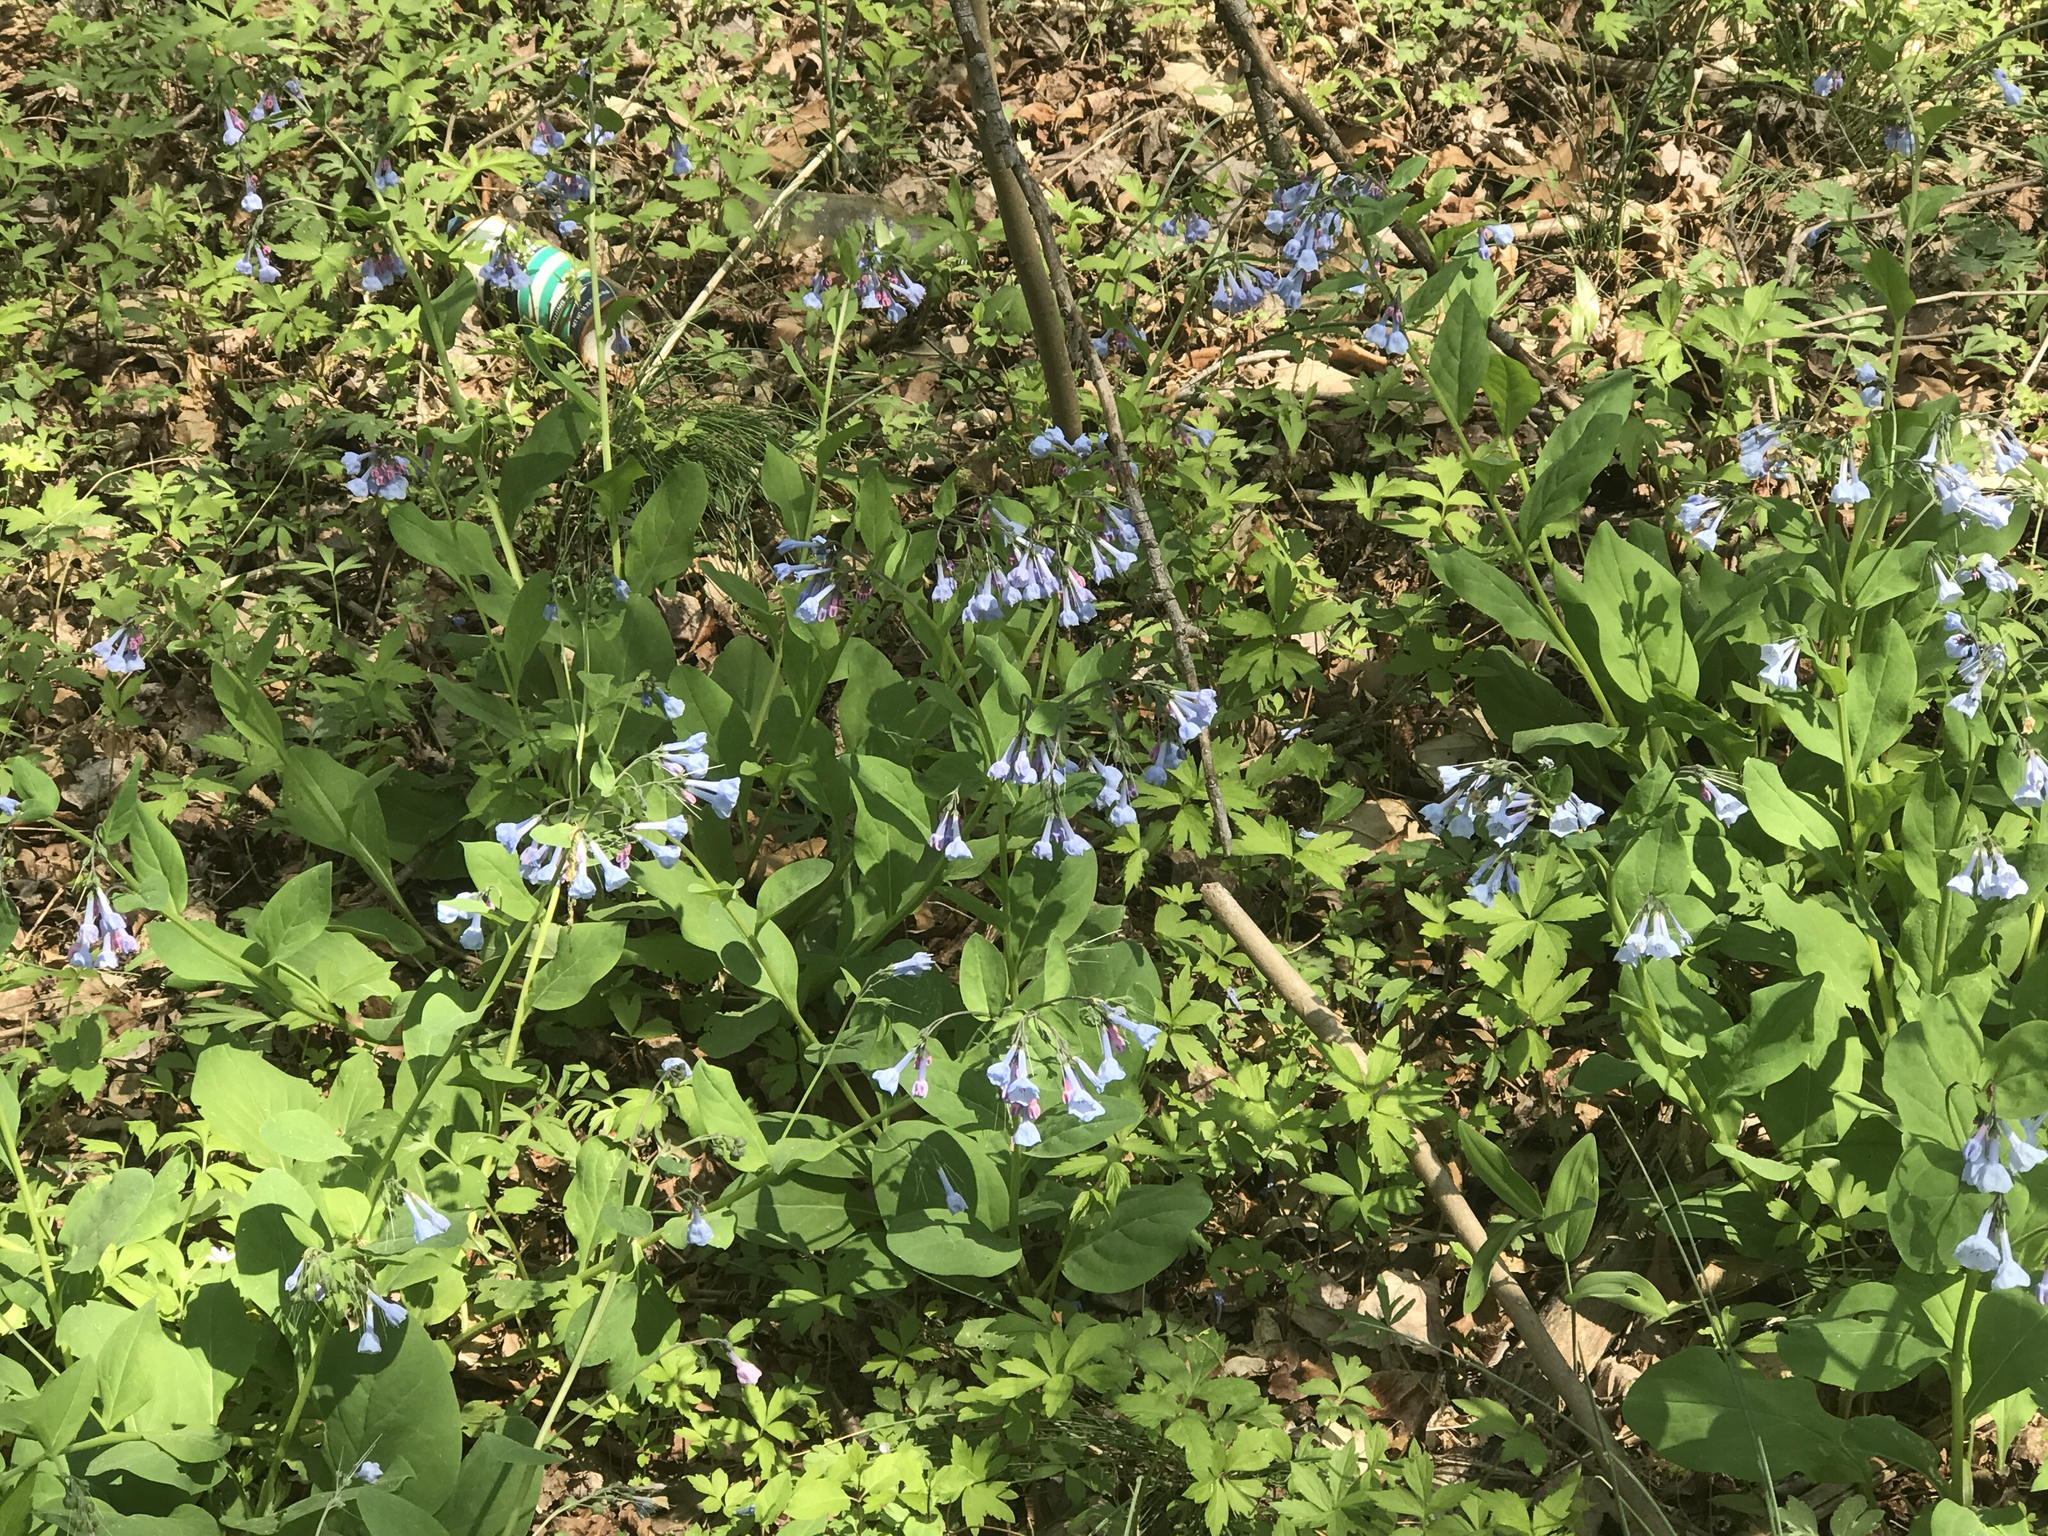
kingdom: Plantae
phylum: Tracheophyta
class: Magnoliopsida
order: Boraginales
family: Boraginaceae
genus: Mertensia
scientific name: Mertensia virginica
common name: Virginia bluebells
